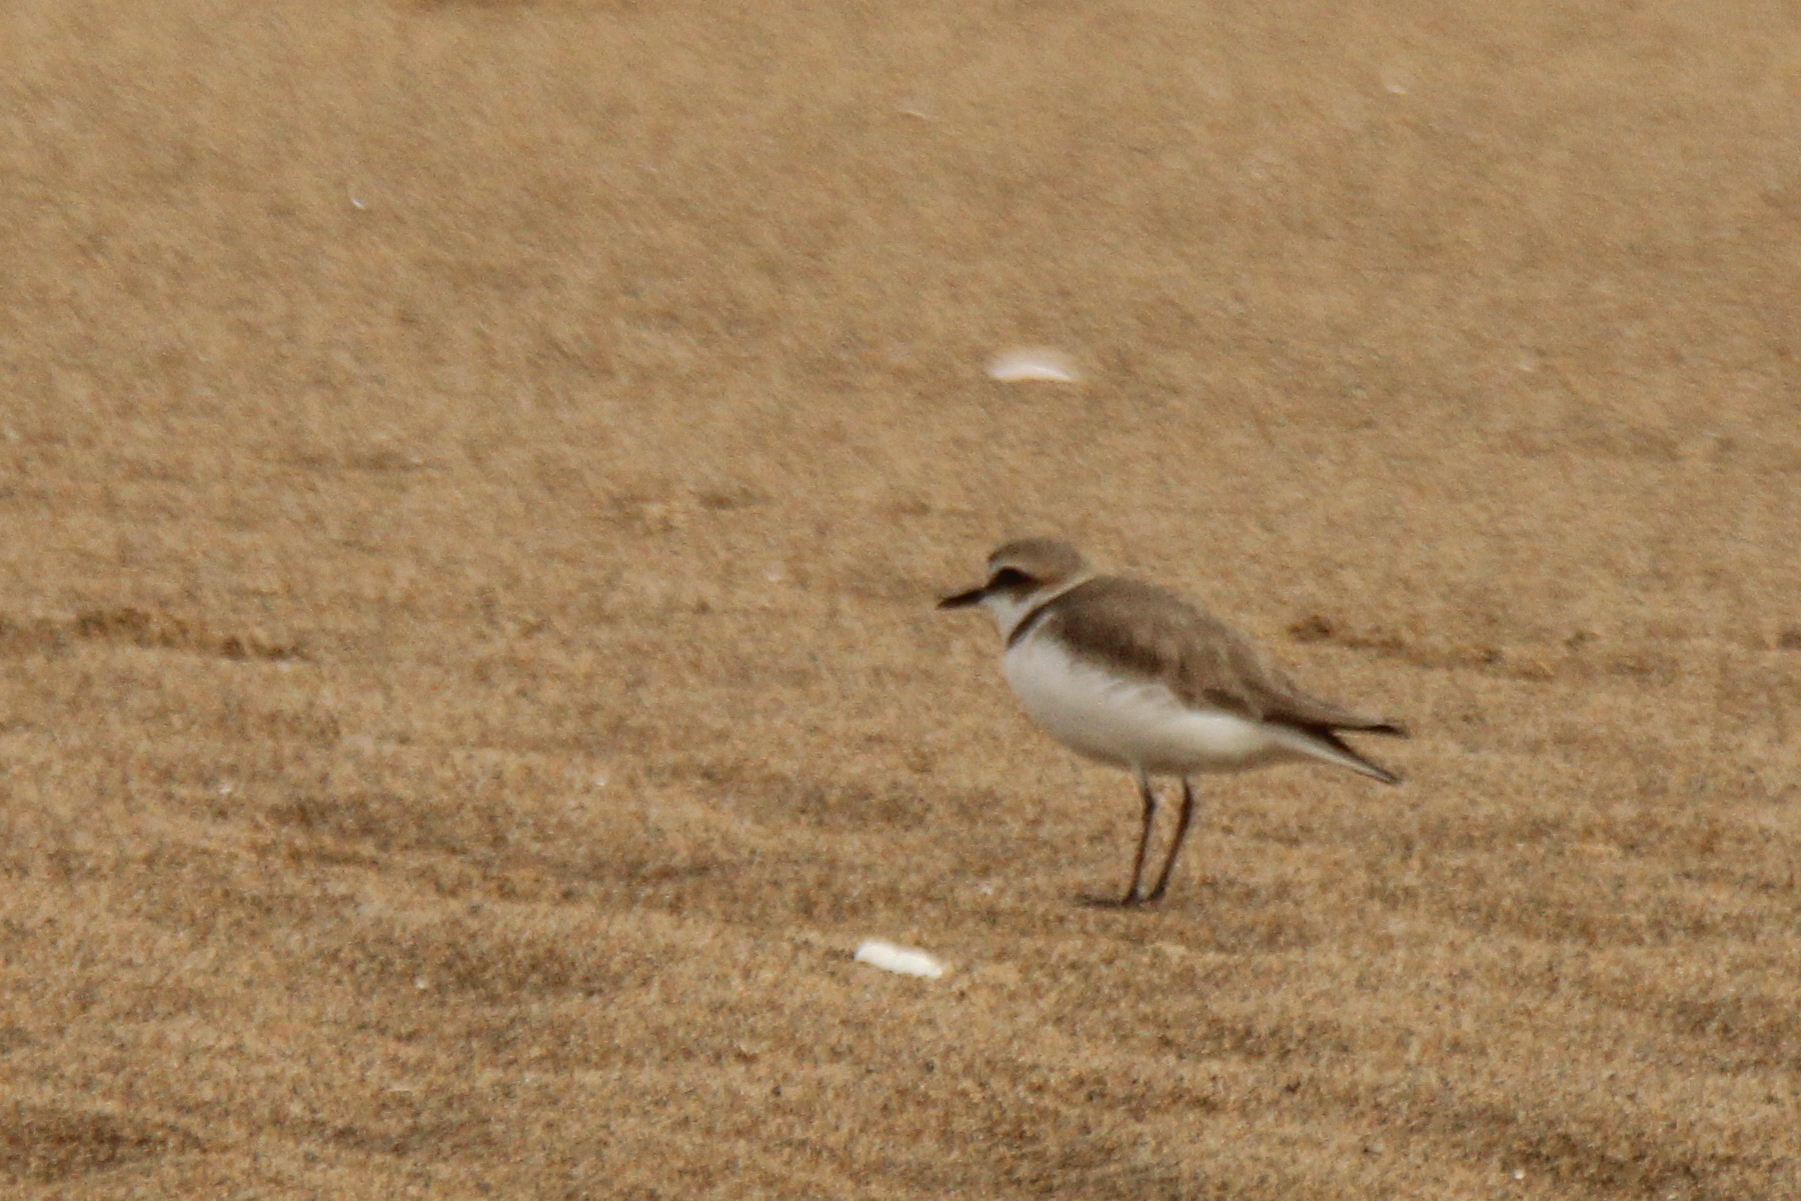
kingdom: Animalia
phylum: Chordata
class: Aves
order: Charadriiformes
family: Charadriidae
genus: Charadrius
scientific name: Charadrius alexandrinus
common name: Kentish plover
